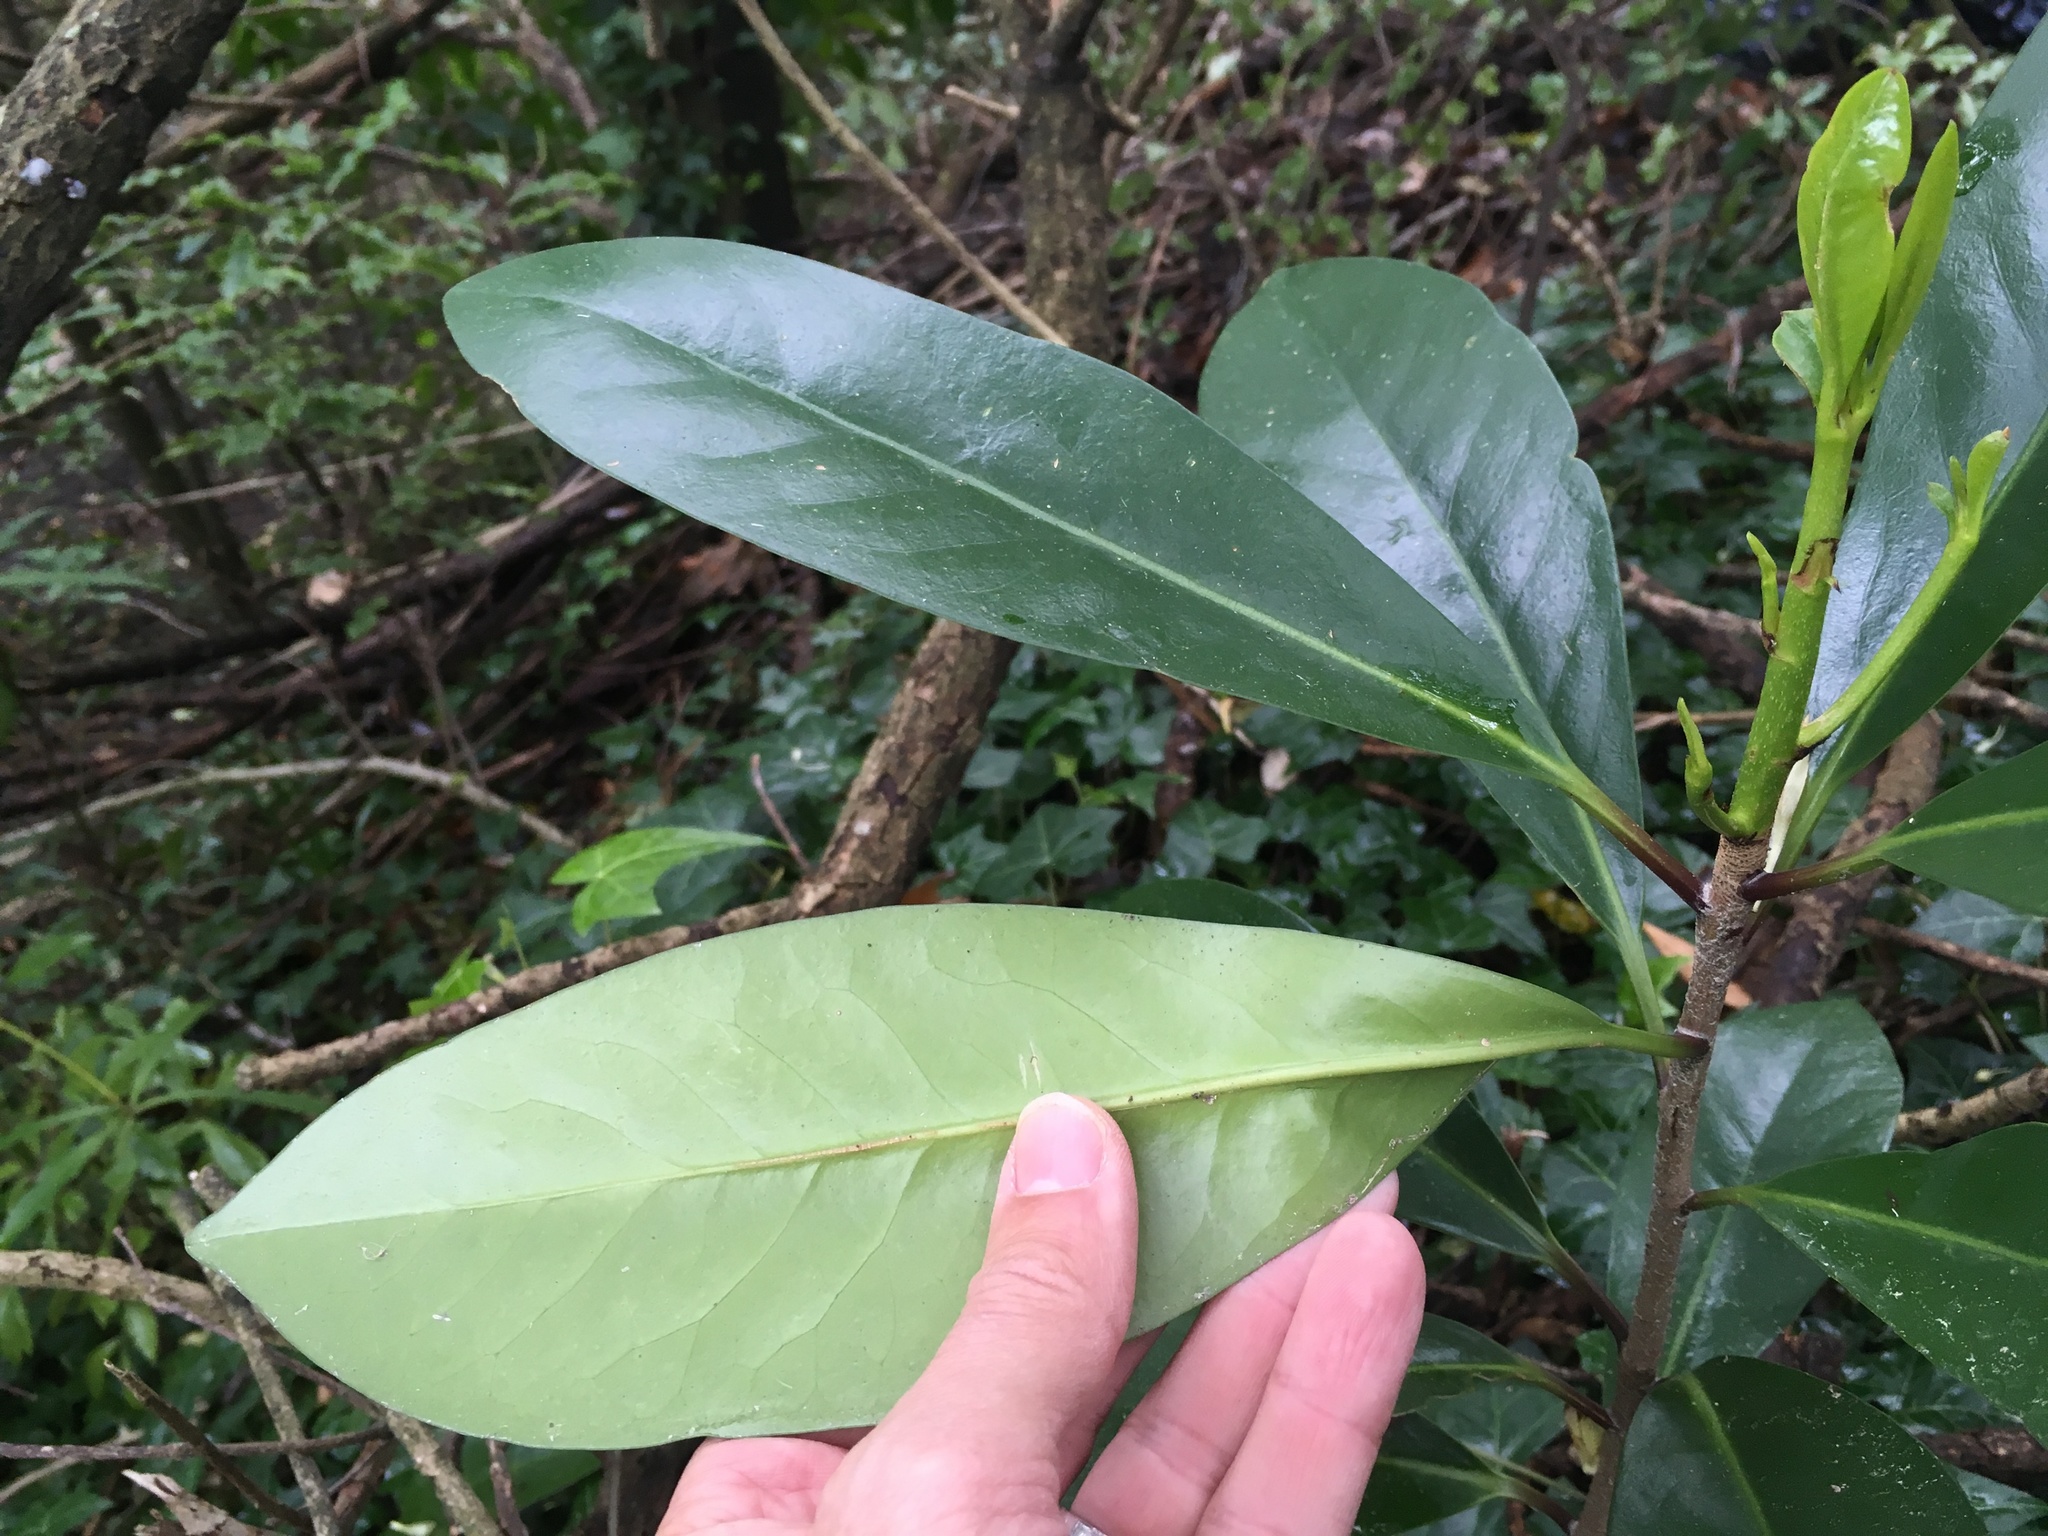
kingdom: Plantae
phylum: Tracheophyta
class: Magnoliopsida
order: Cucurbitales
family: Corynocarpaceae
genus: Corynocarpus
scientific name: Corynocarpus laevigatus
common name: New zealand laurel
